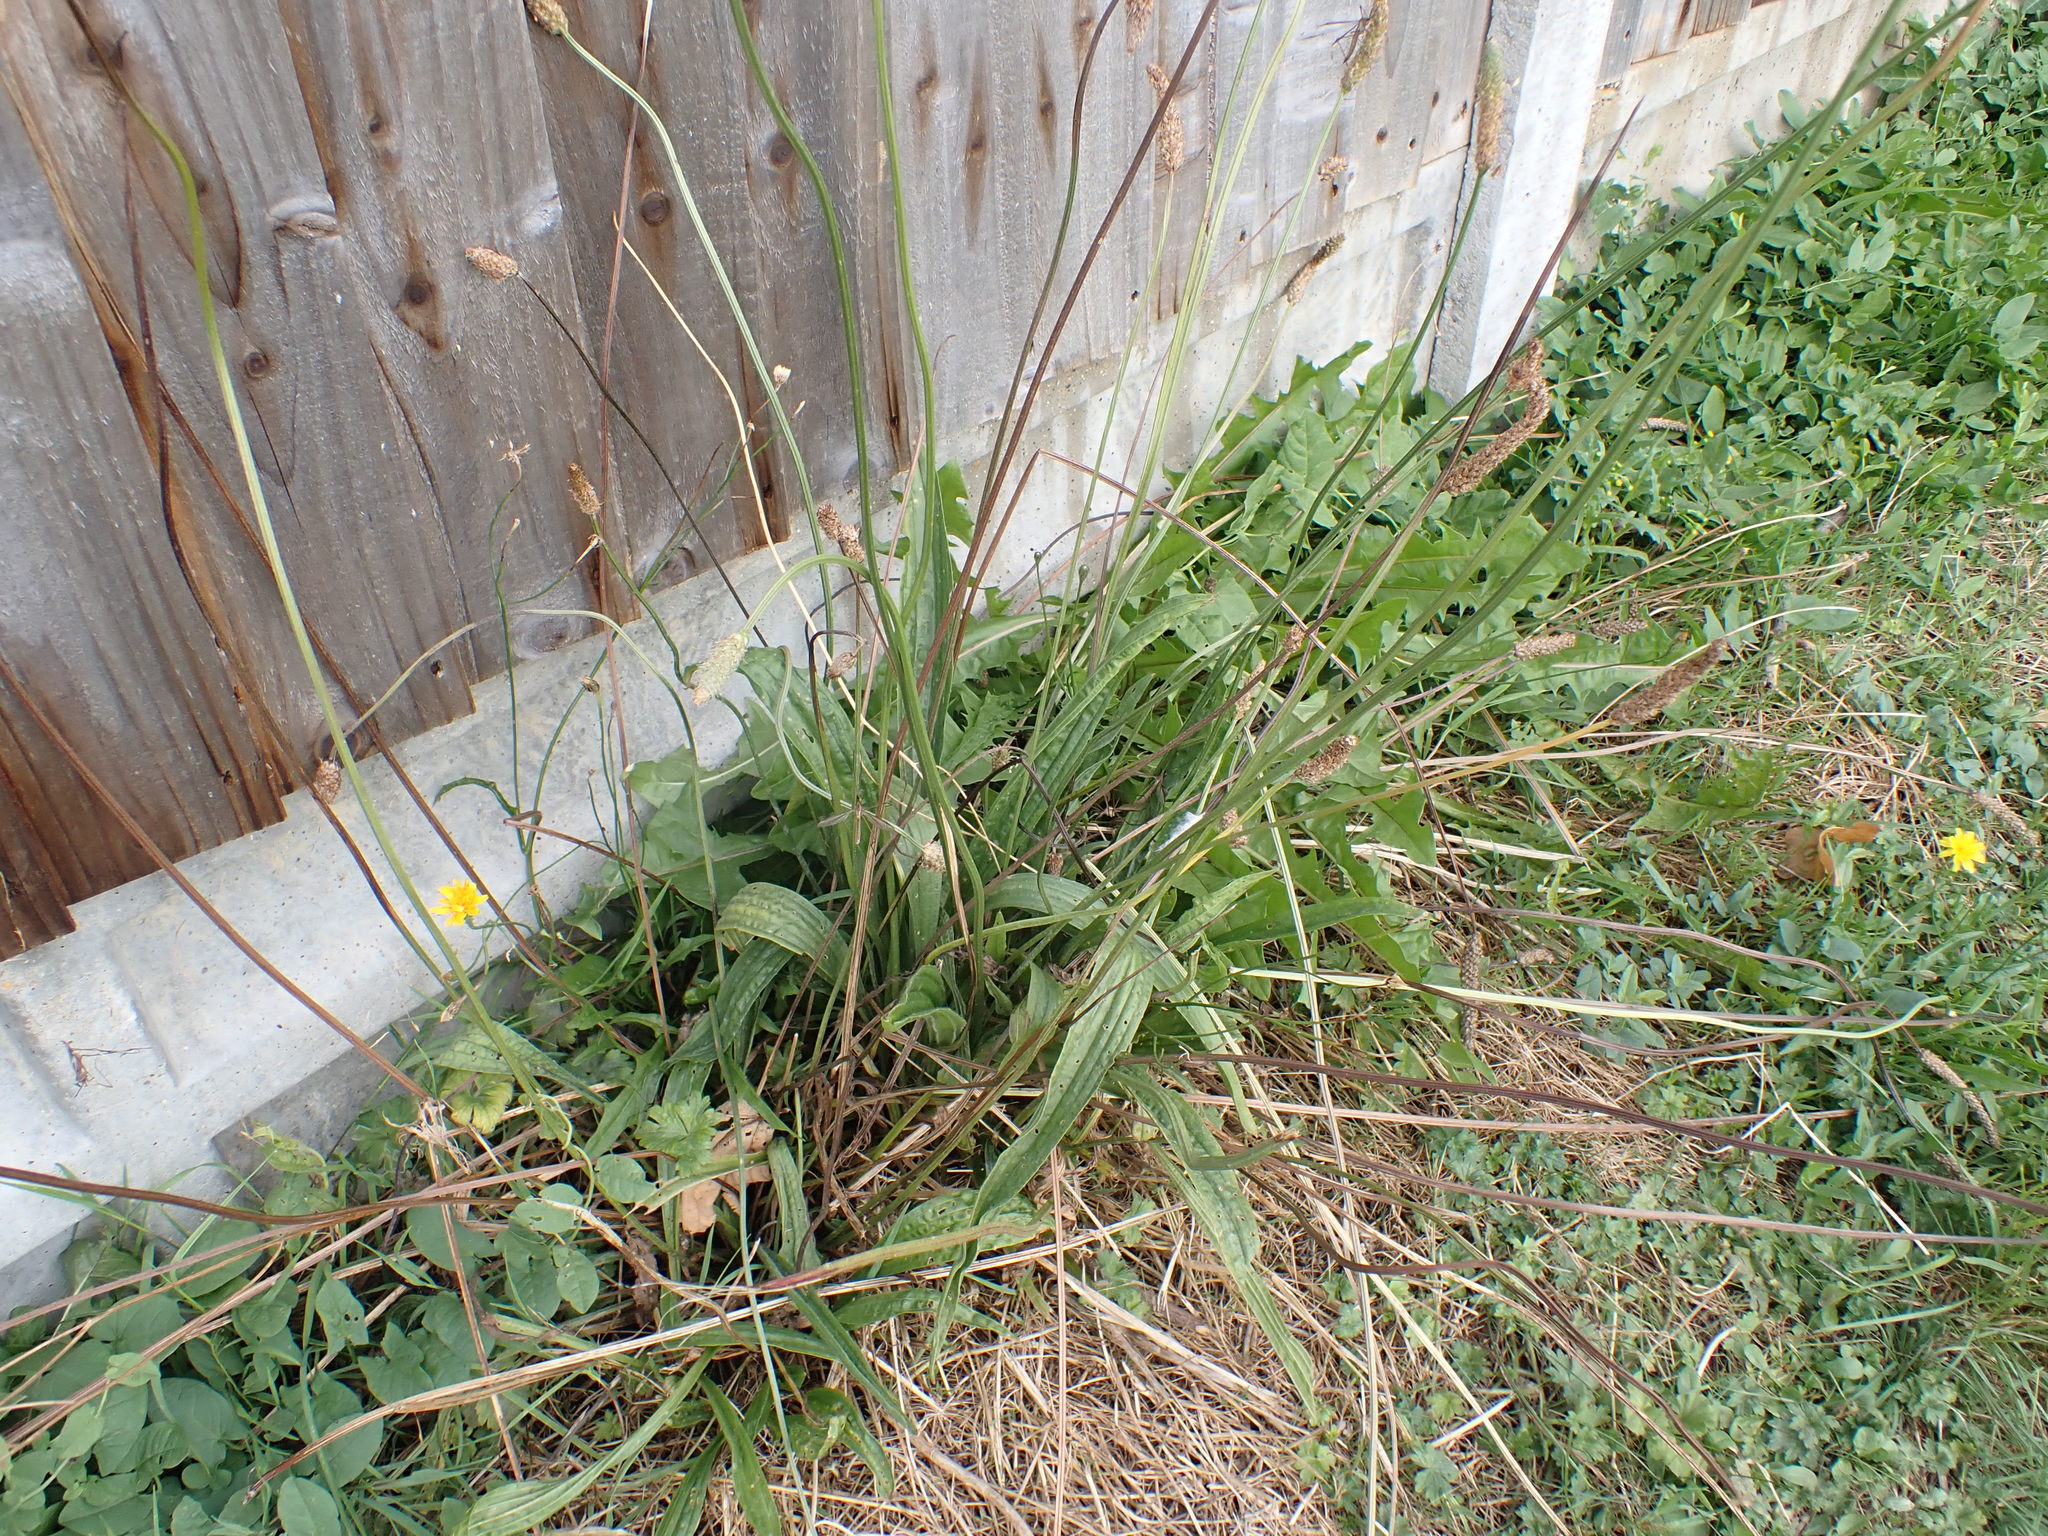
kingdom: Plantae
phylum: Tracheophyta
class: Magnoliopsida
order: Lamiales
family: Plantaginaceae
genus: Plantago
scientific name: Plantago lanceolata
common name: Ribwort plantain
